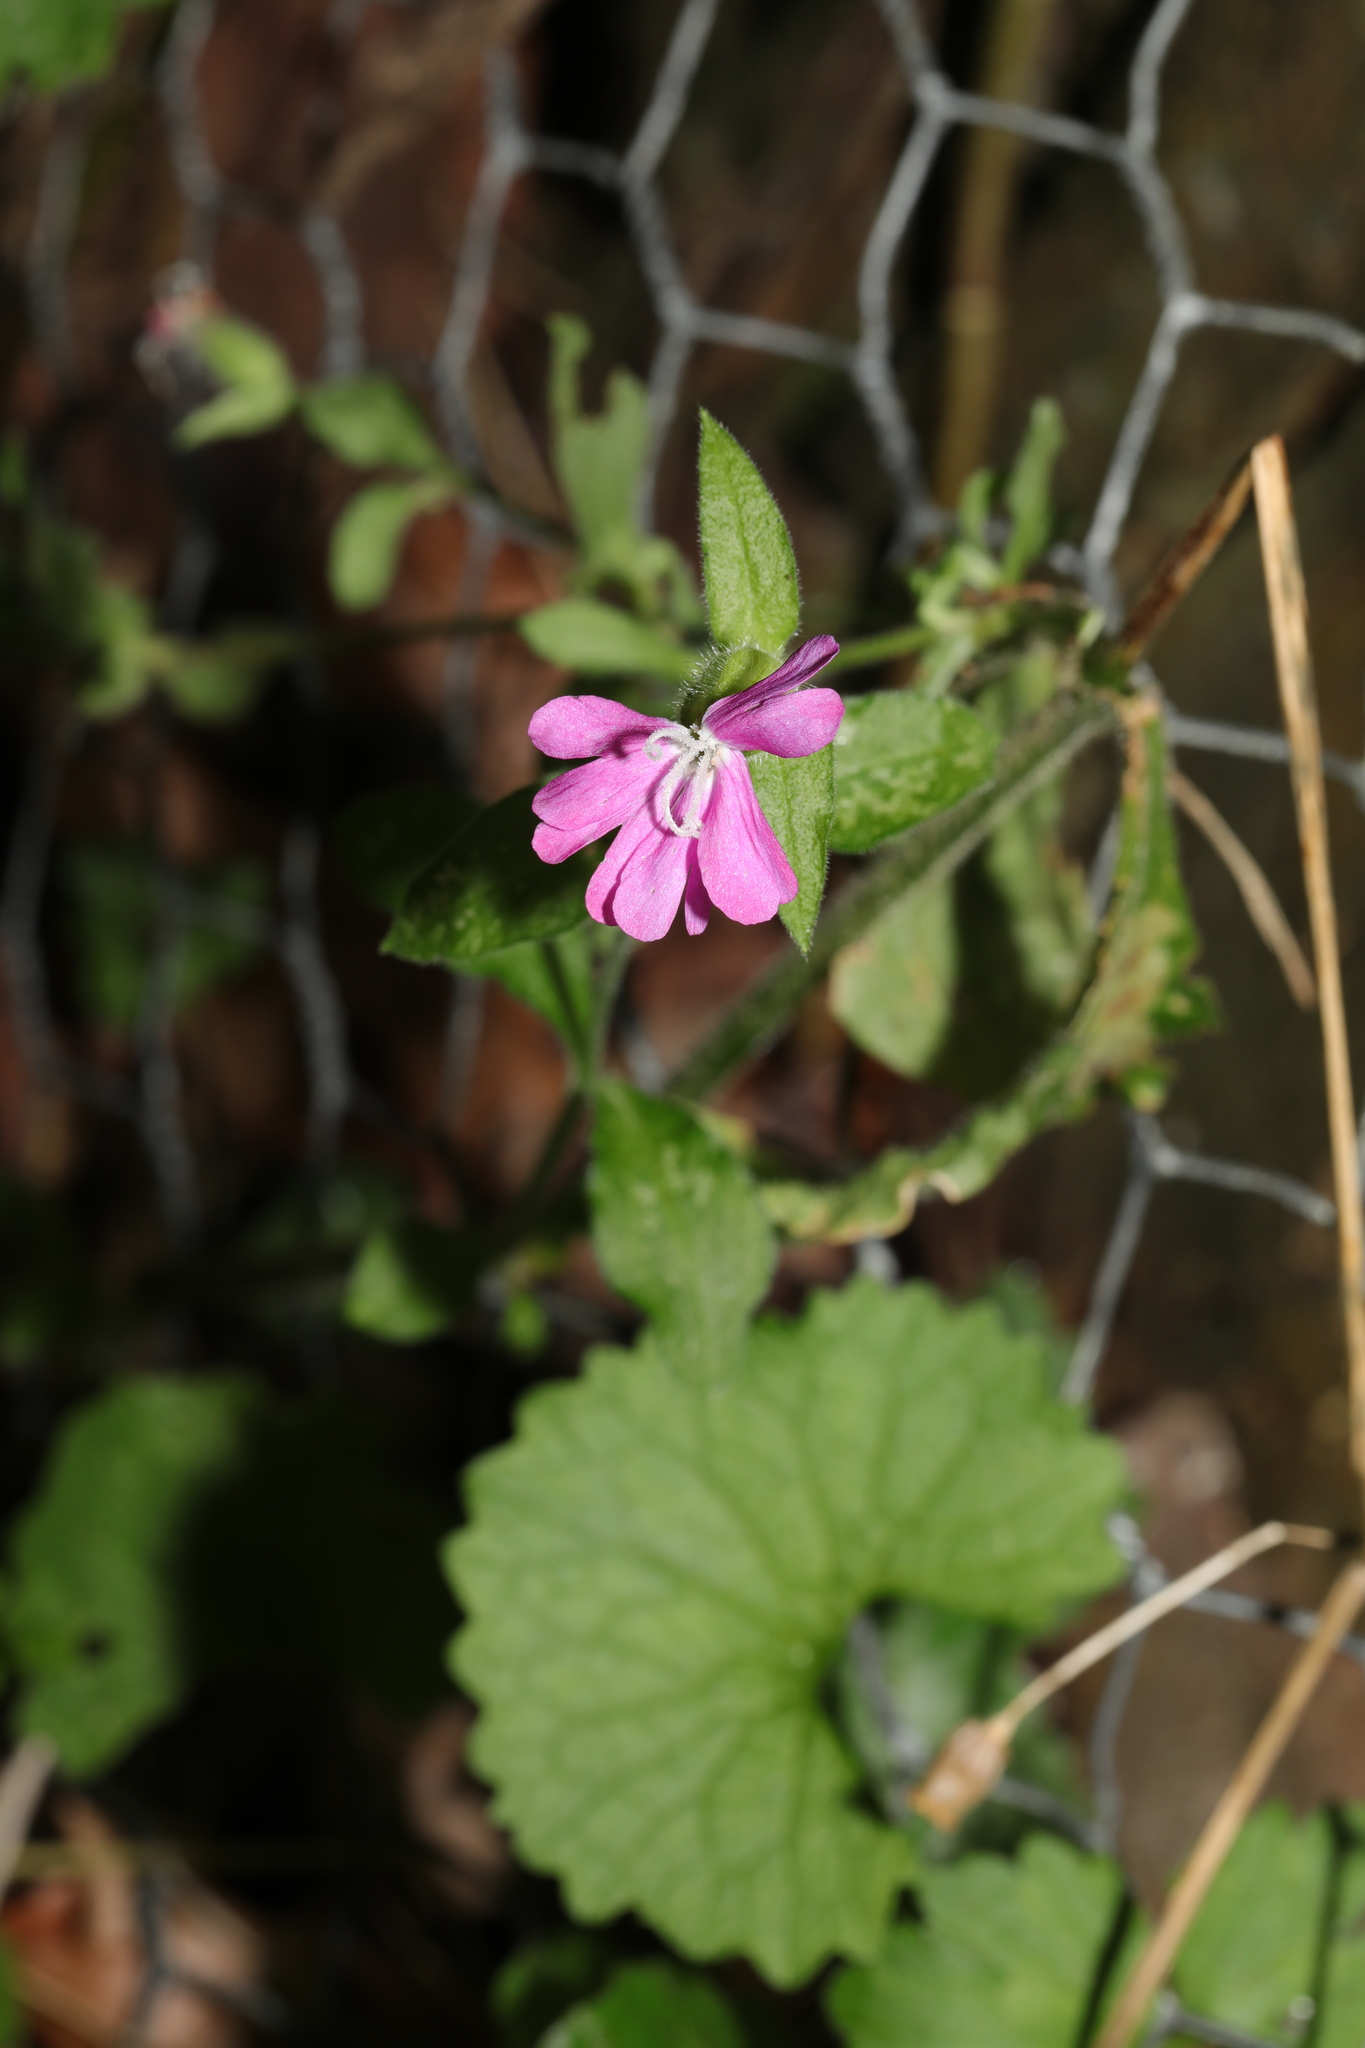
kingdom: Plantae
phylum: Tracheophyta
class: Magnoliopsida
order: Caryophyllales
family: Caryophyllaceae
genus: Silene
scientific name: Silene dioica
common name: Red campion
